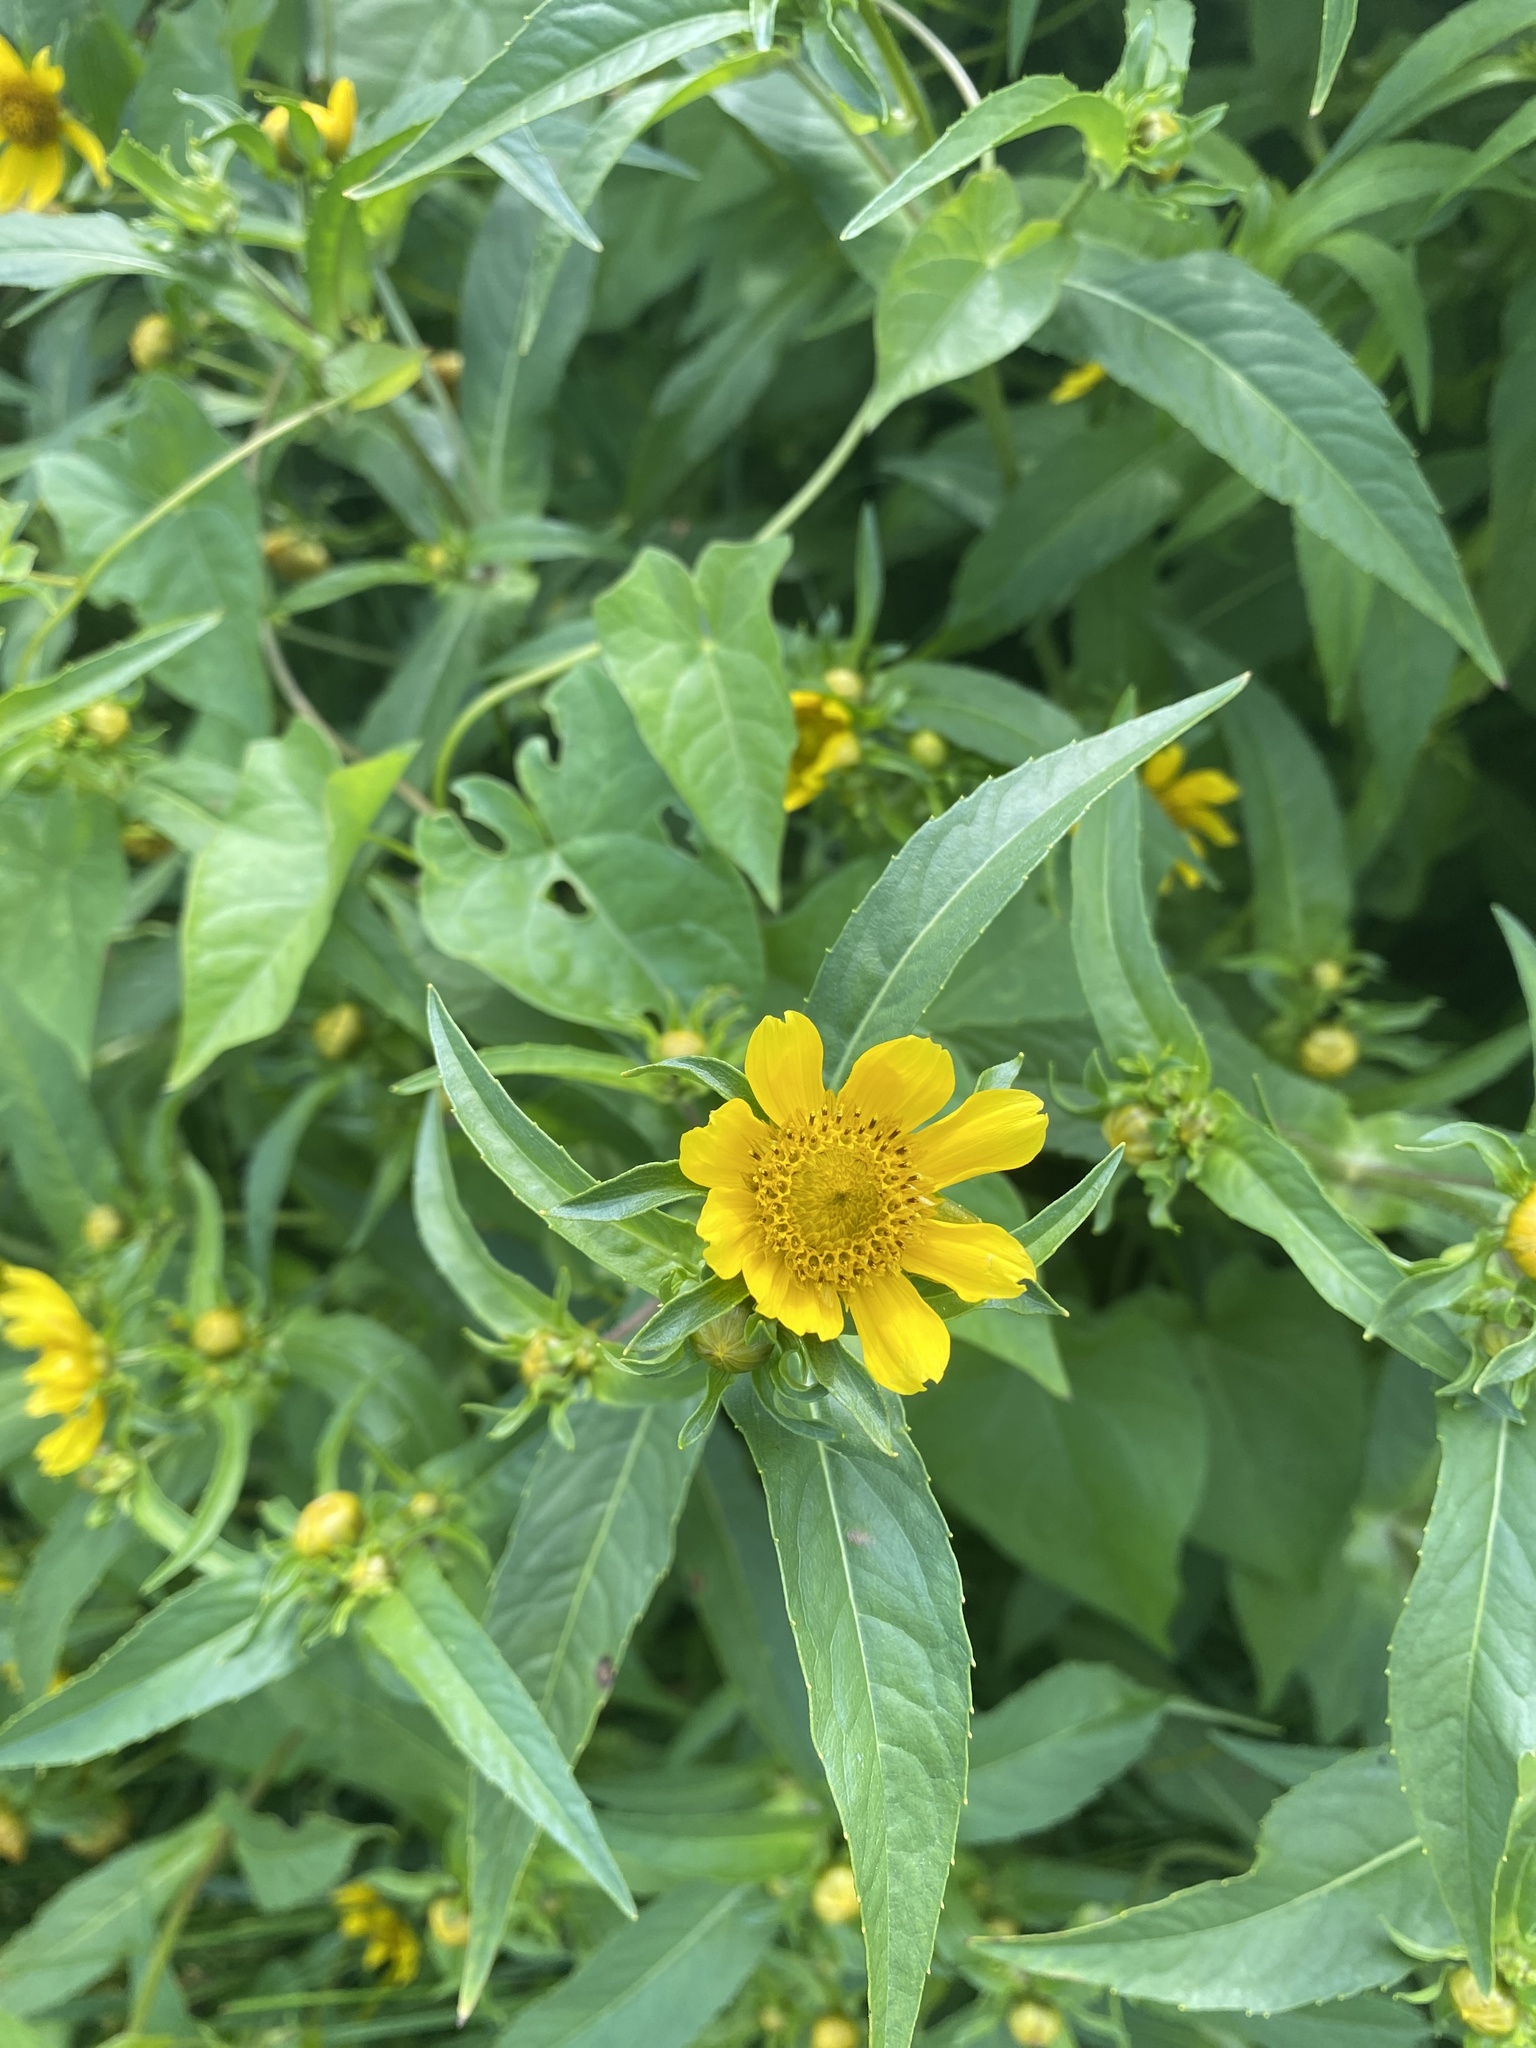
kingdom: Plantae
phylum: Tracheophyta
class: Magnoliopsida
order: Asterales
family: Asteraceae
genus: Bidens
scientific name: Bidens cernua
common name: Nodding bur-marigold
